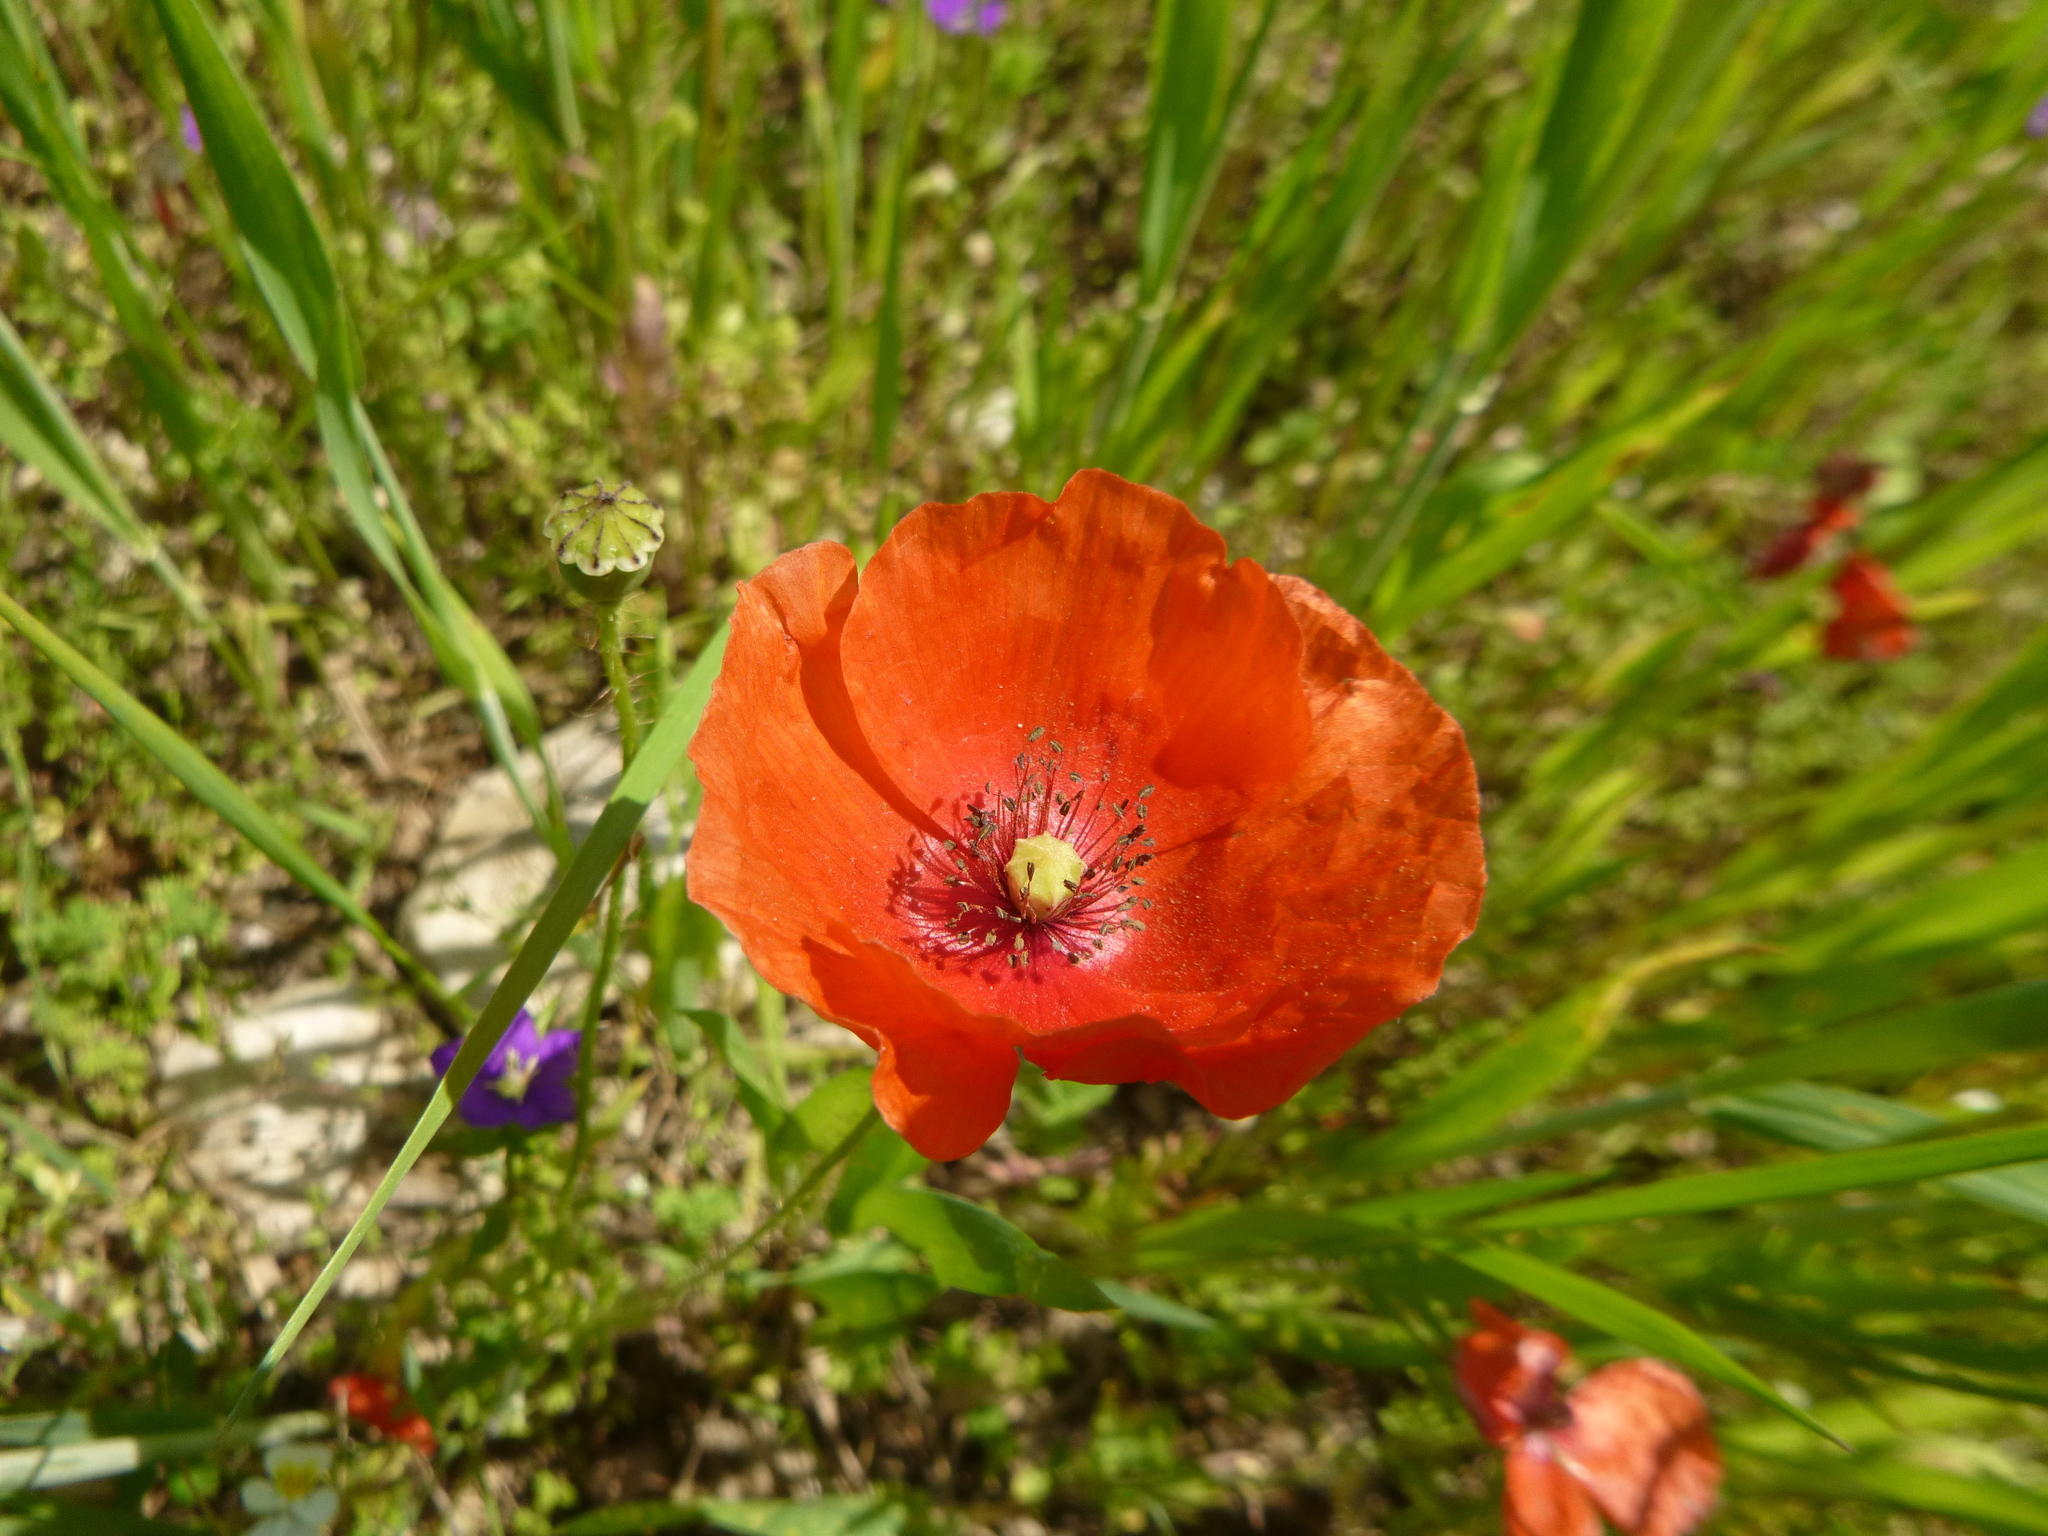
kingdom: Plantae
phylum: Tracheophyta
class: Magnoliopsida
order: Ranunculales
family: Papaveraceae
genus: Papaver
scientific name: Papaver rhoeas
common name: Corn poppy
